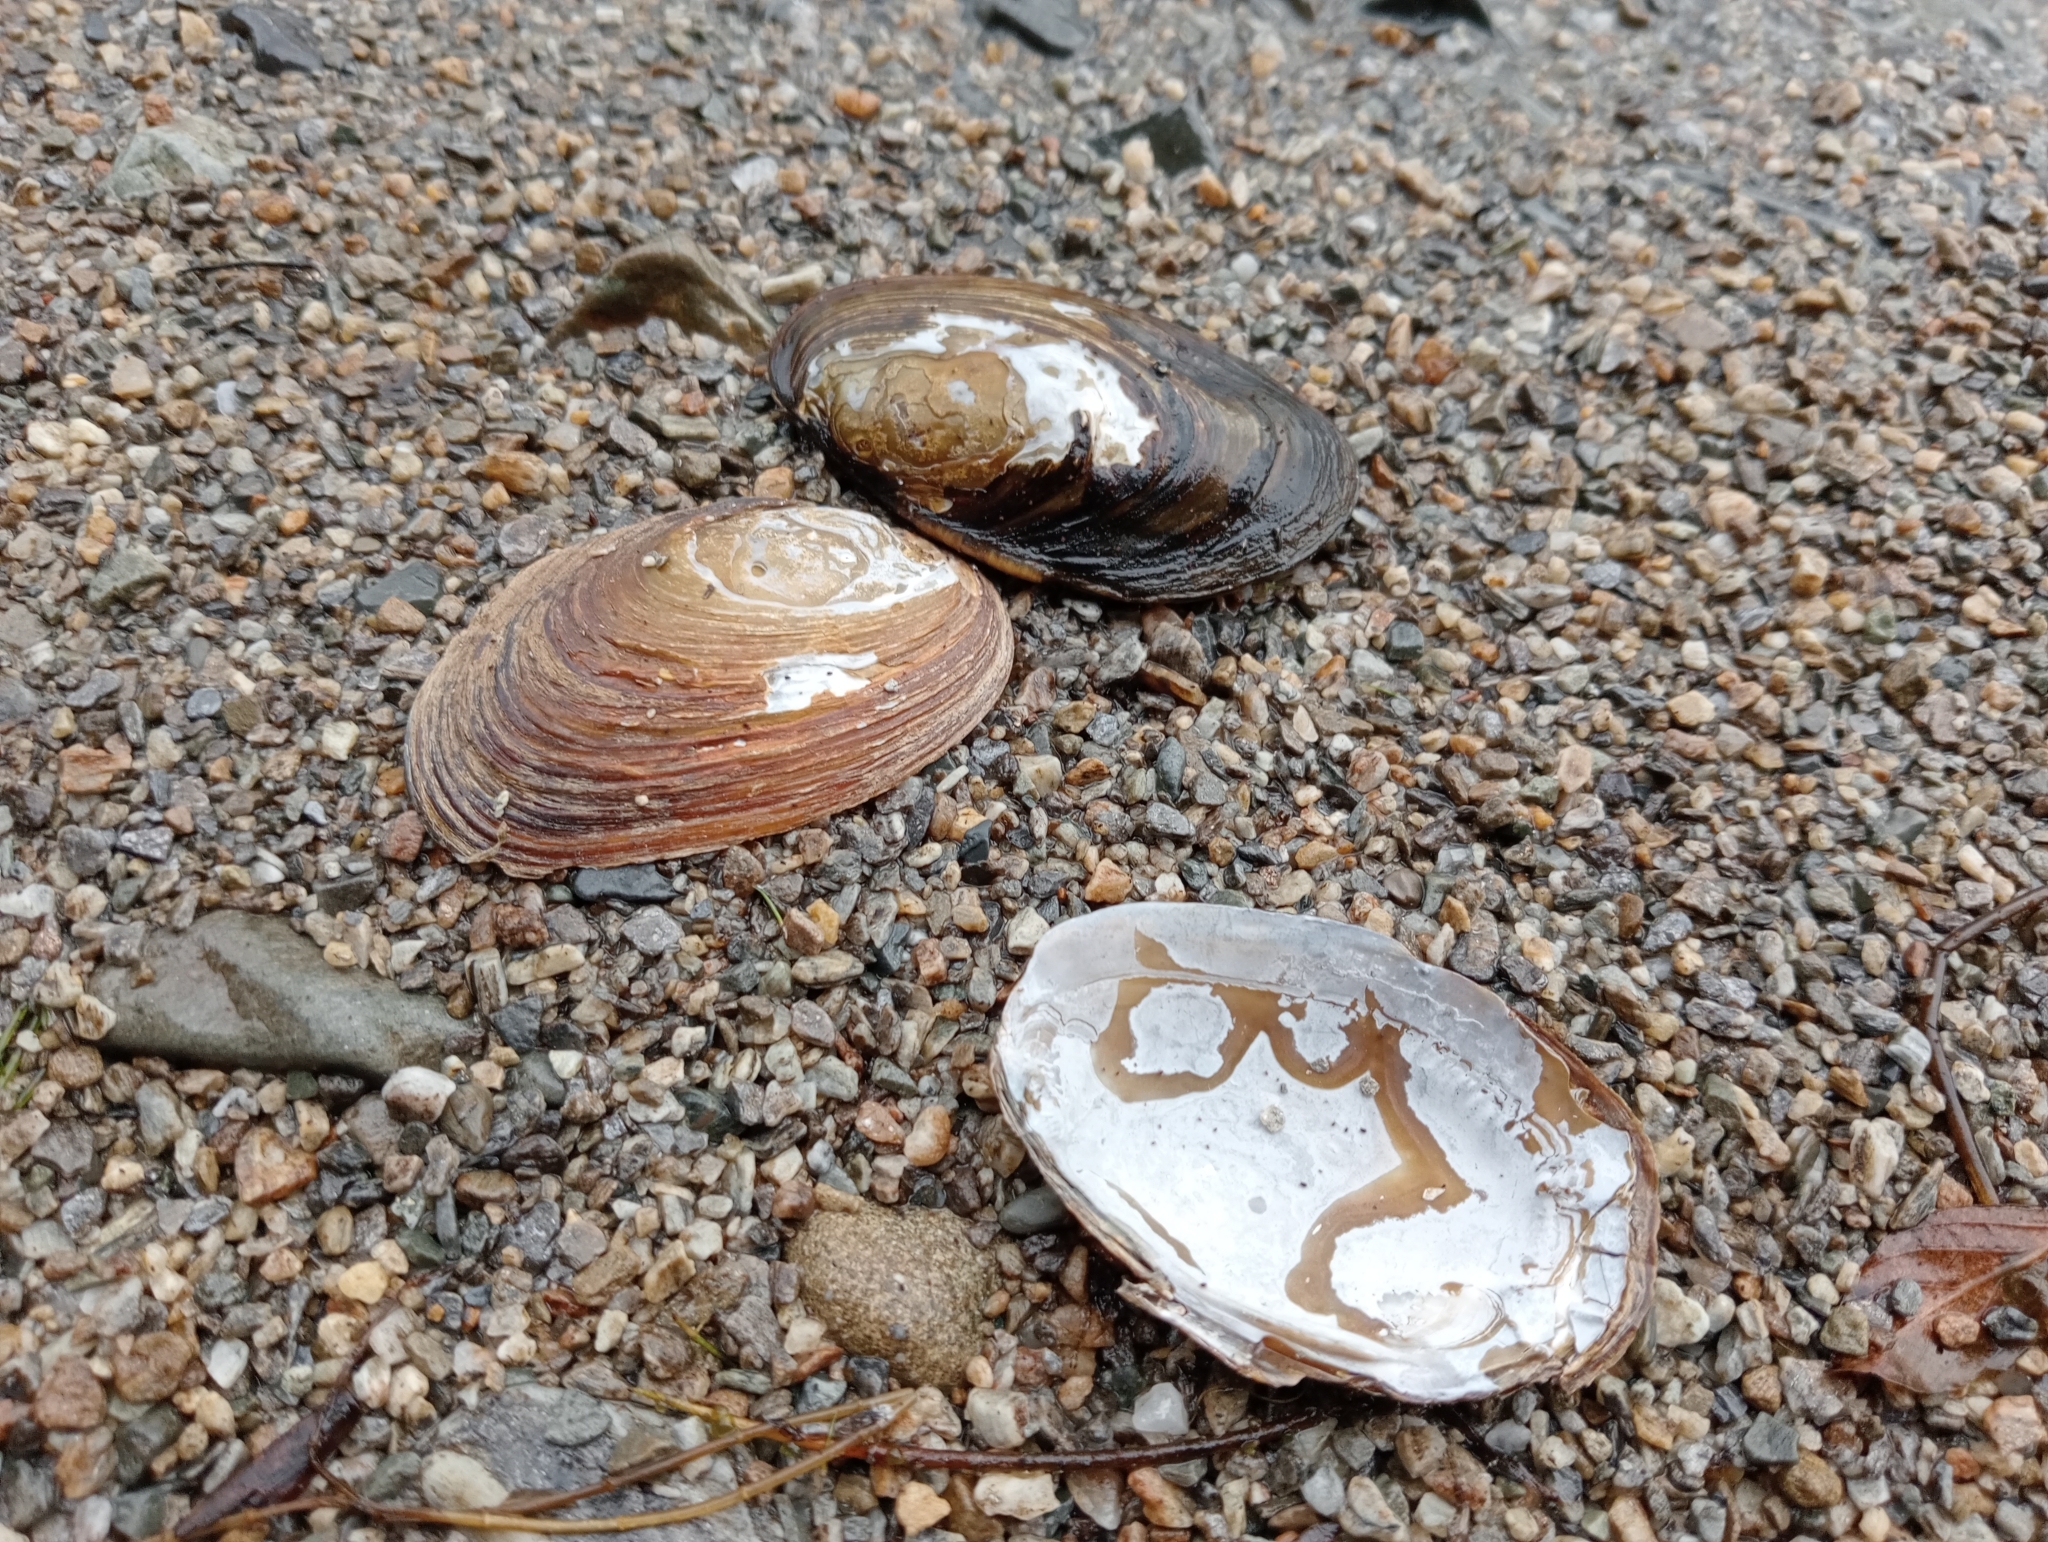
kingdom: Animalia
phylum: Mollusca
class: Bivalvia
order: Unionida
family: Hyriidae
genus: Echyridella
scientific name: Echyridella menziesii
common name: New zealand freshwater mussel
